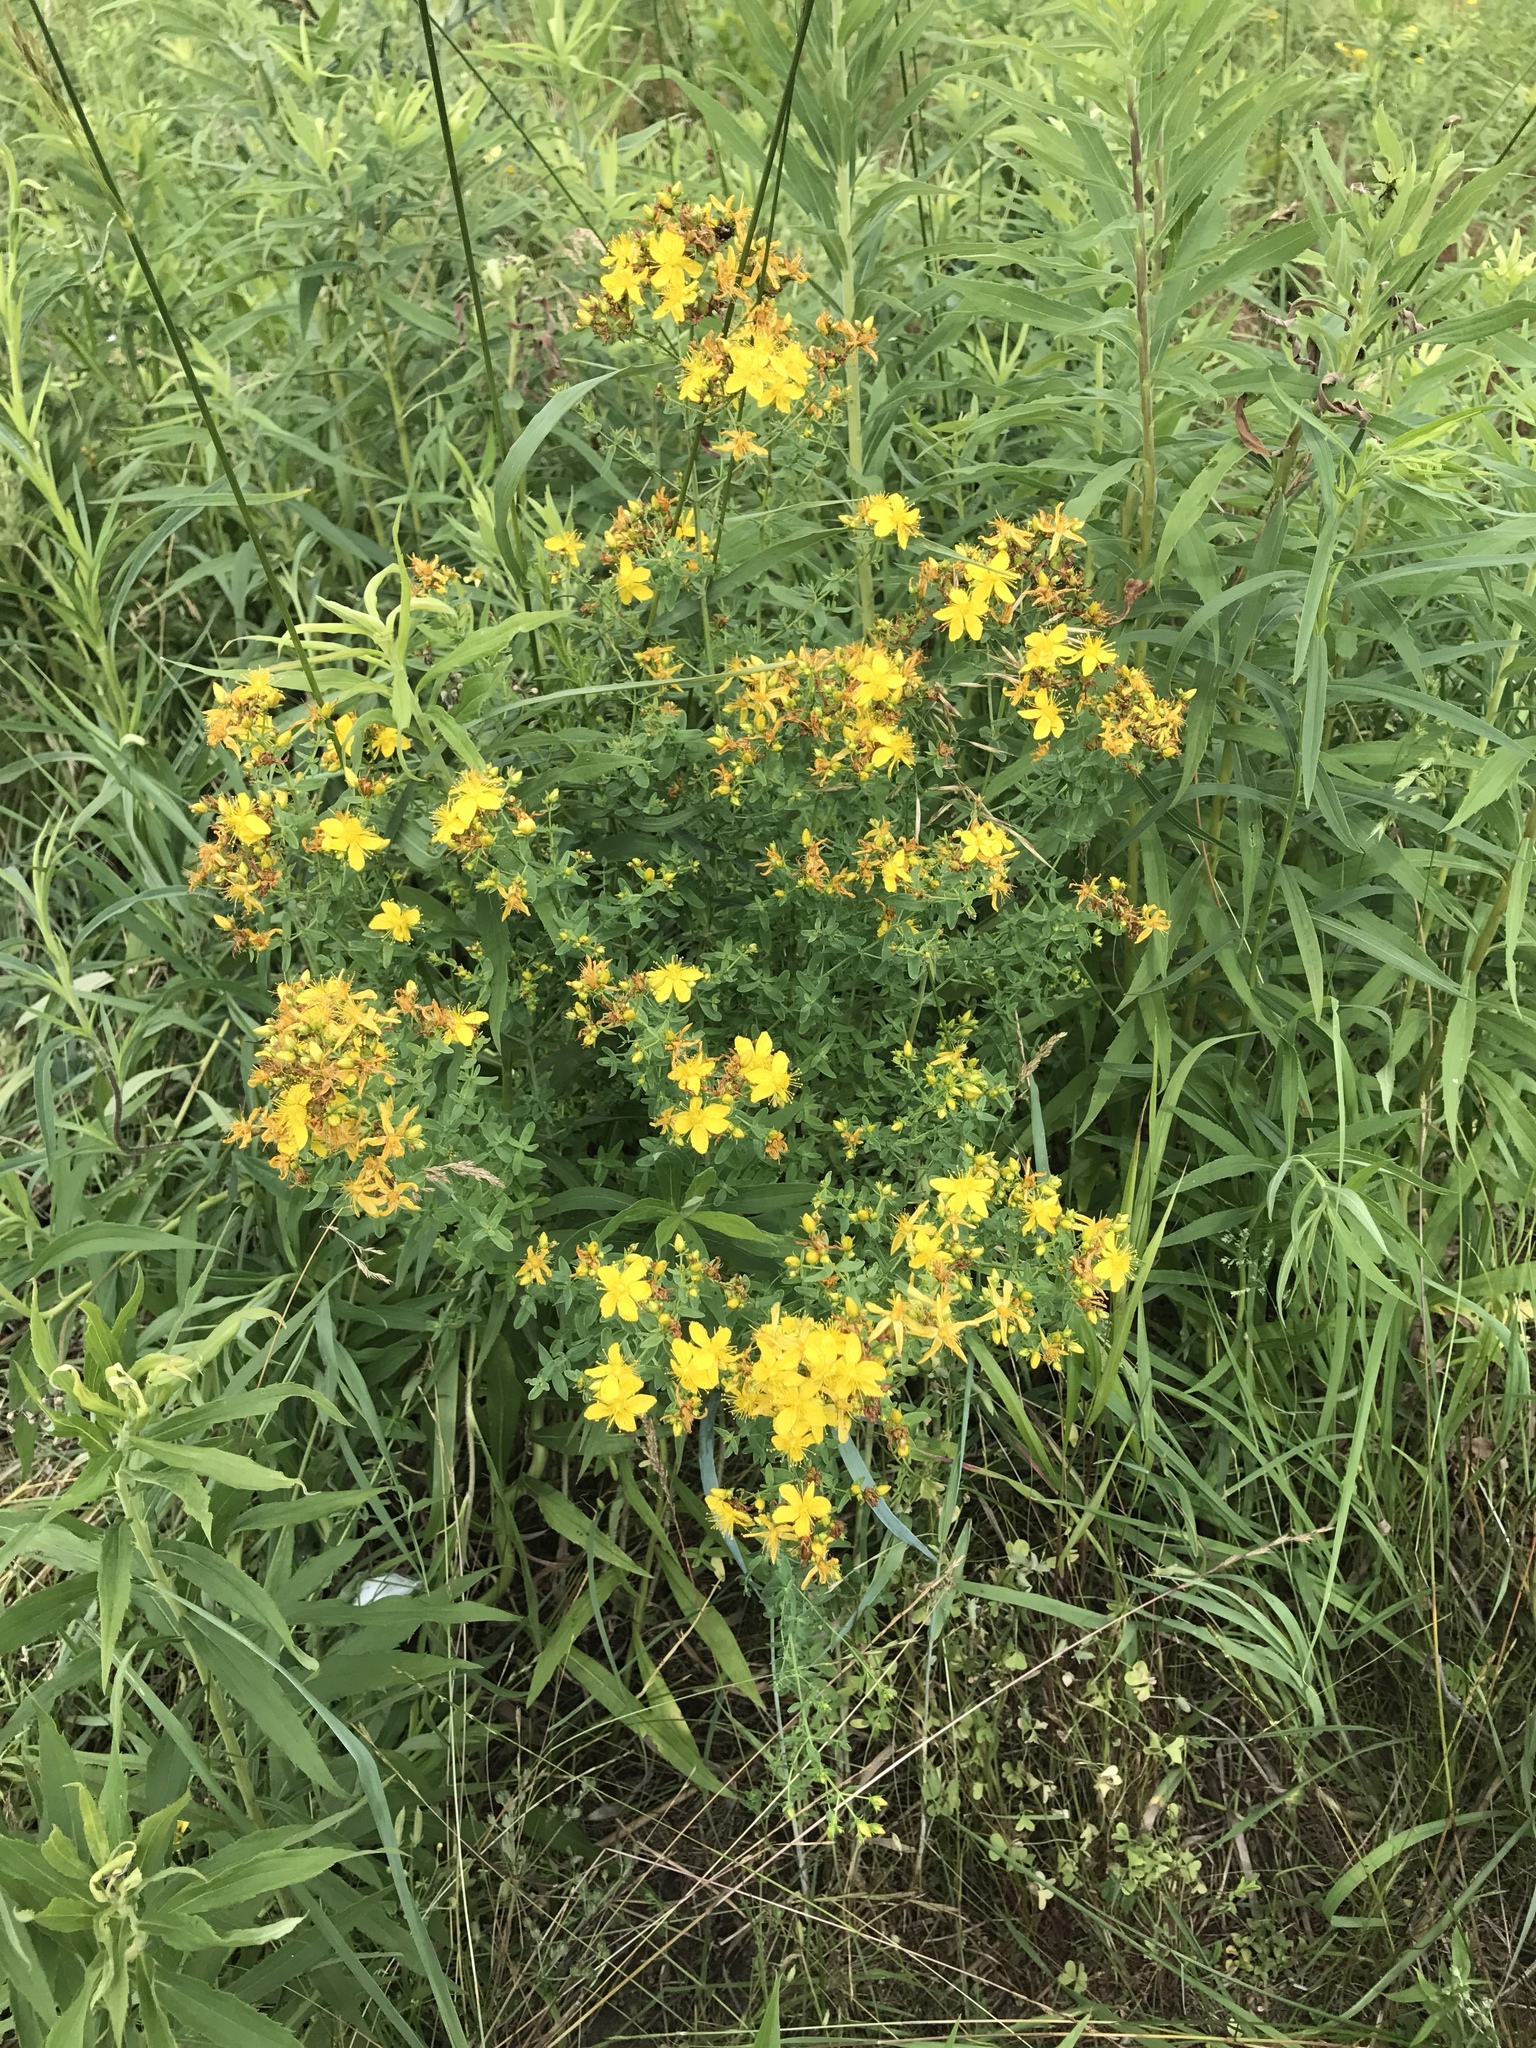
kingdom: Plantae
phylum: Tracheophyta
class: Magnoliopsida
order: Malpighiales
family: Hypericaceae
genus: Hypericum
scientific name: Hypericum perforatum
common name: Common st. johnswort
